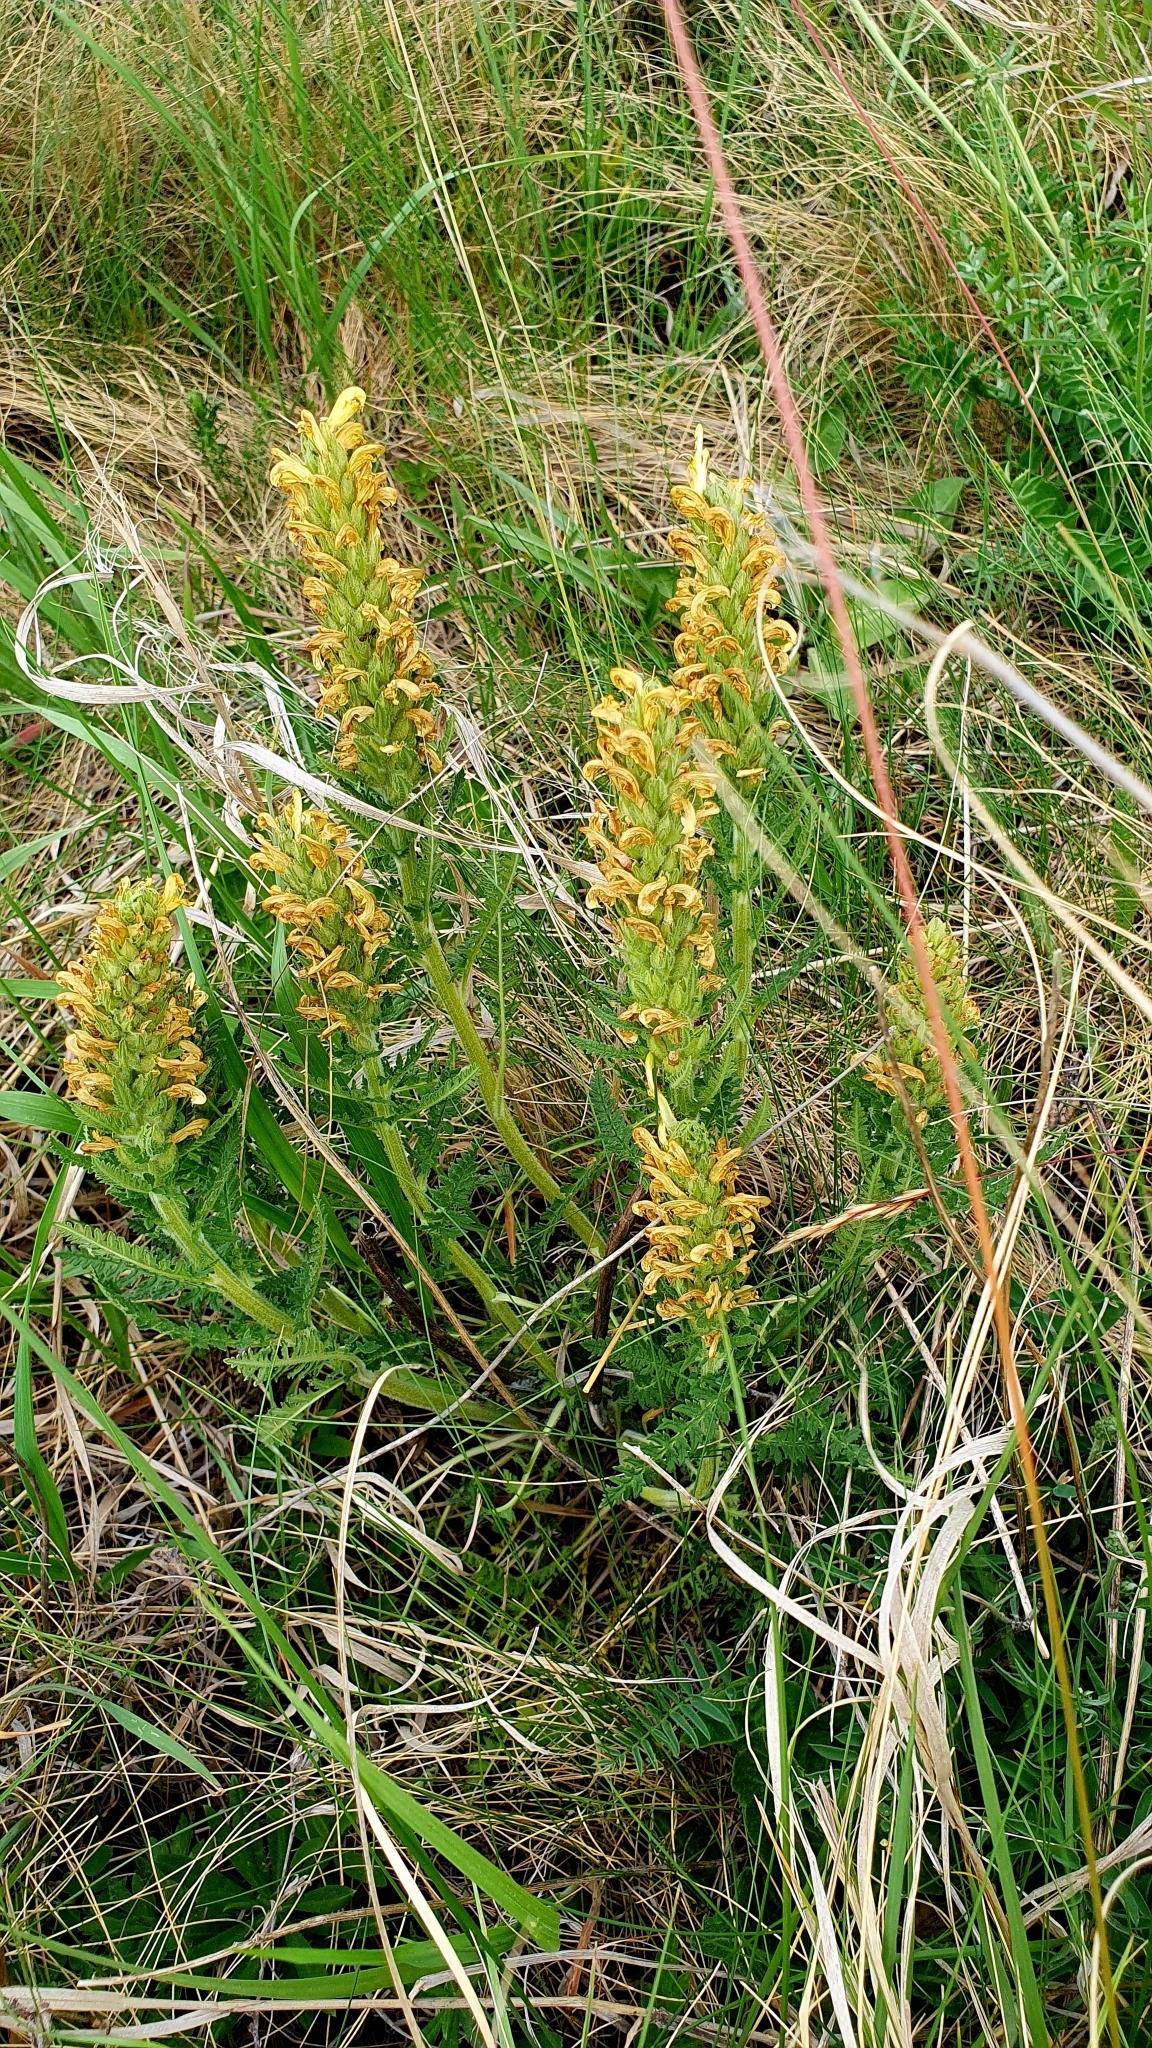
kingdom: Plantae
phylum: Tracheophyta
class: Magnoliopsida
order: Lamiales
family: Orobanchaceae
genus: Pedicularis
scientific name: Pedicularis kaufmannii
